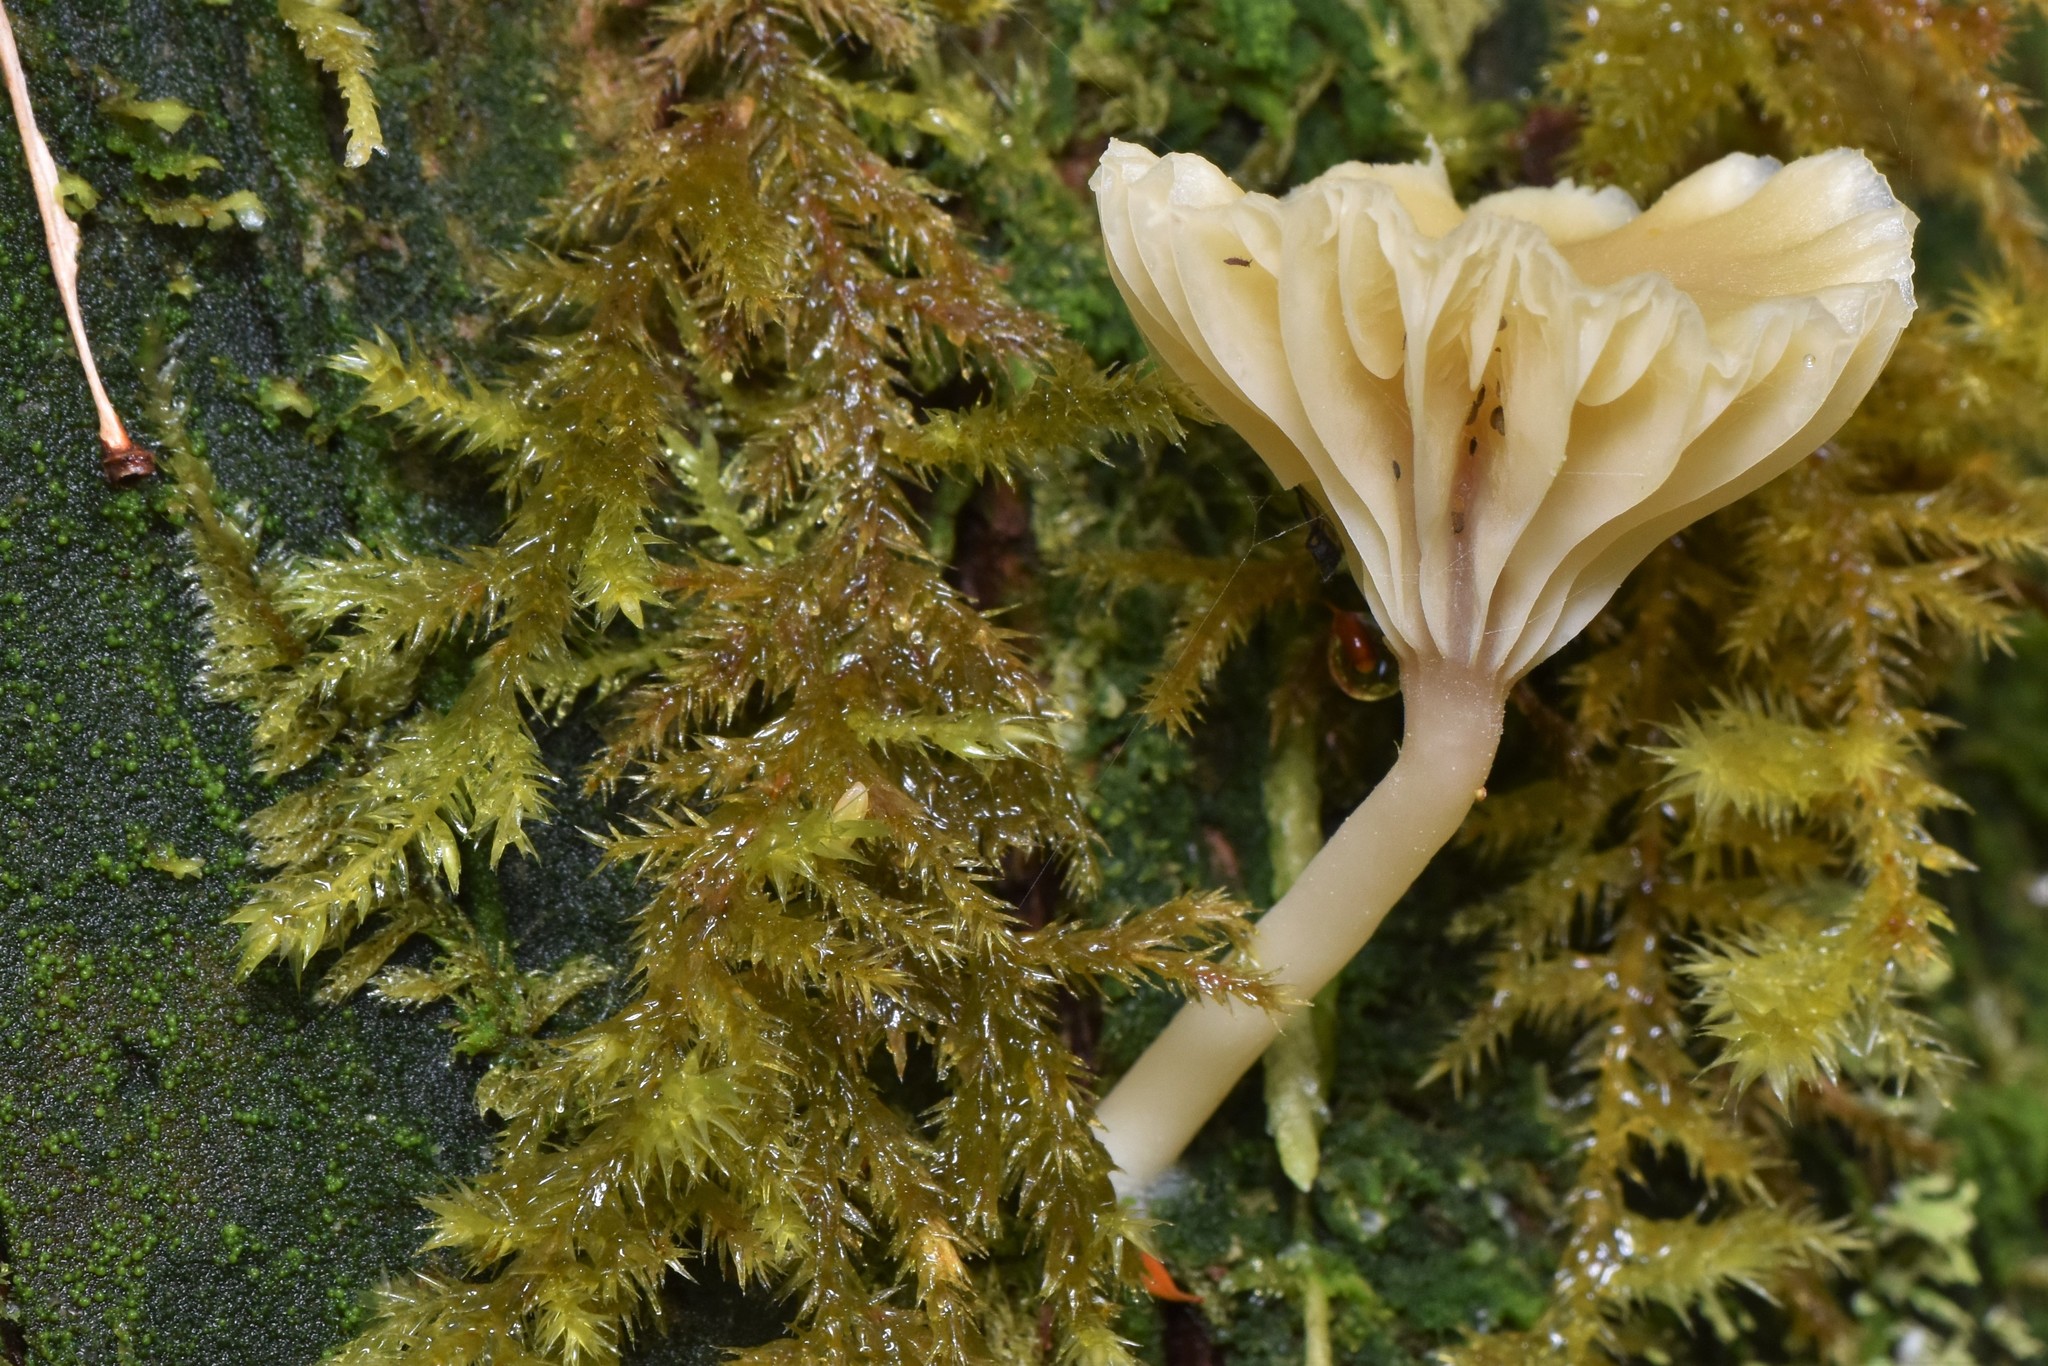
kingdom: Fungi
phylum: Basidiomycota
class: Agaricomycetes
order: Agaricales
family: Hygrophoraceae
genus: Lichenomphalia
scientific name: Lichenomphalia
